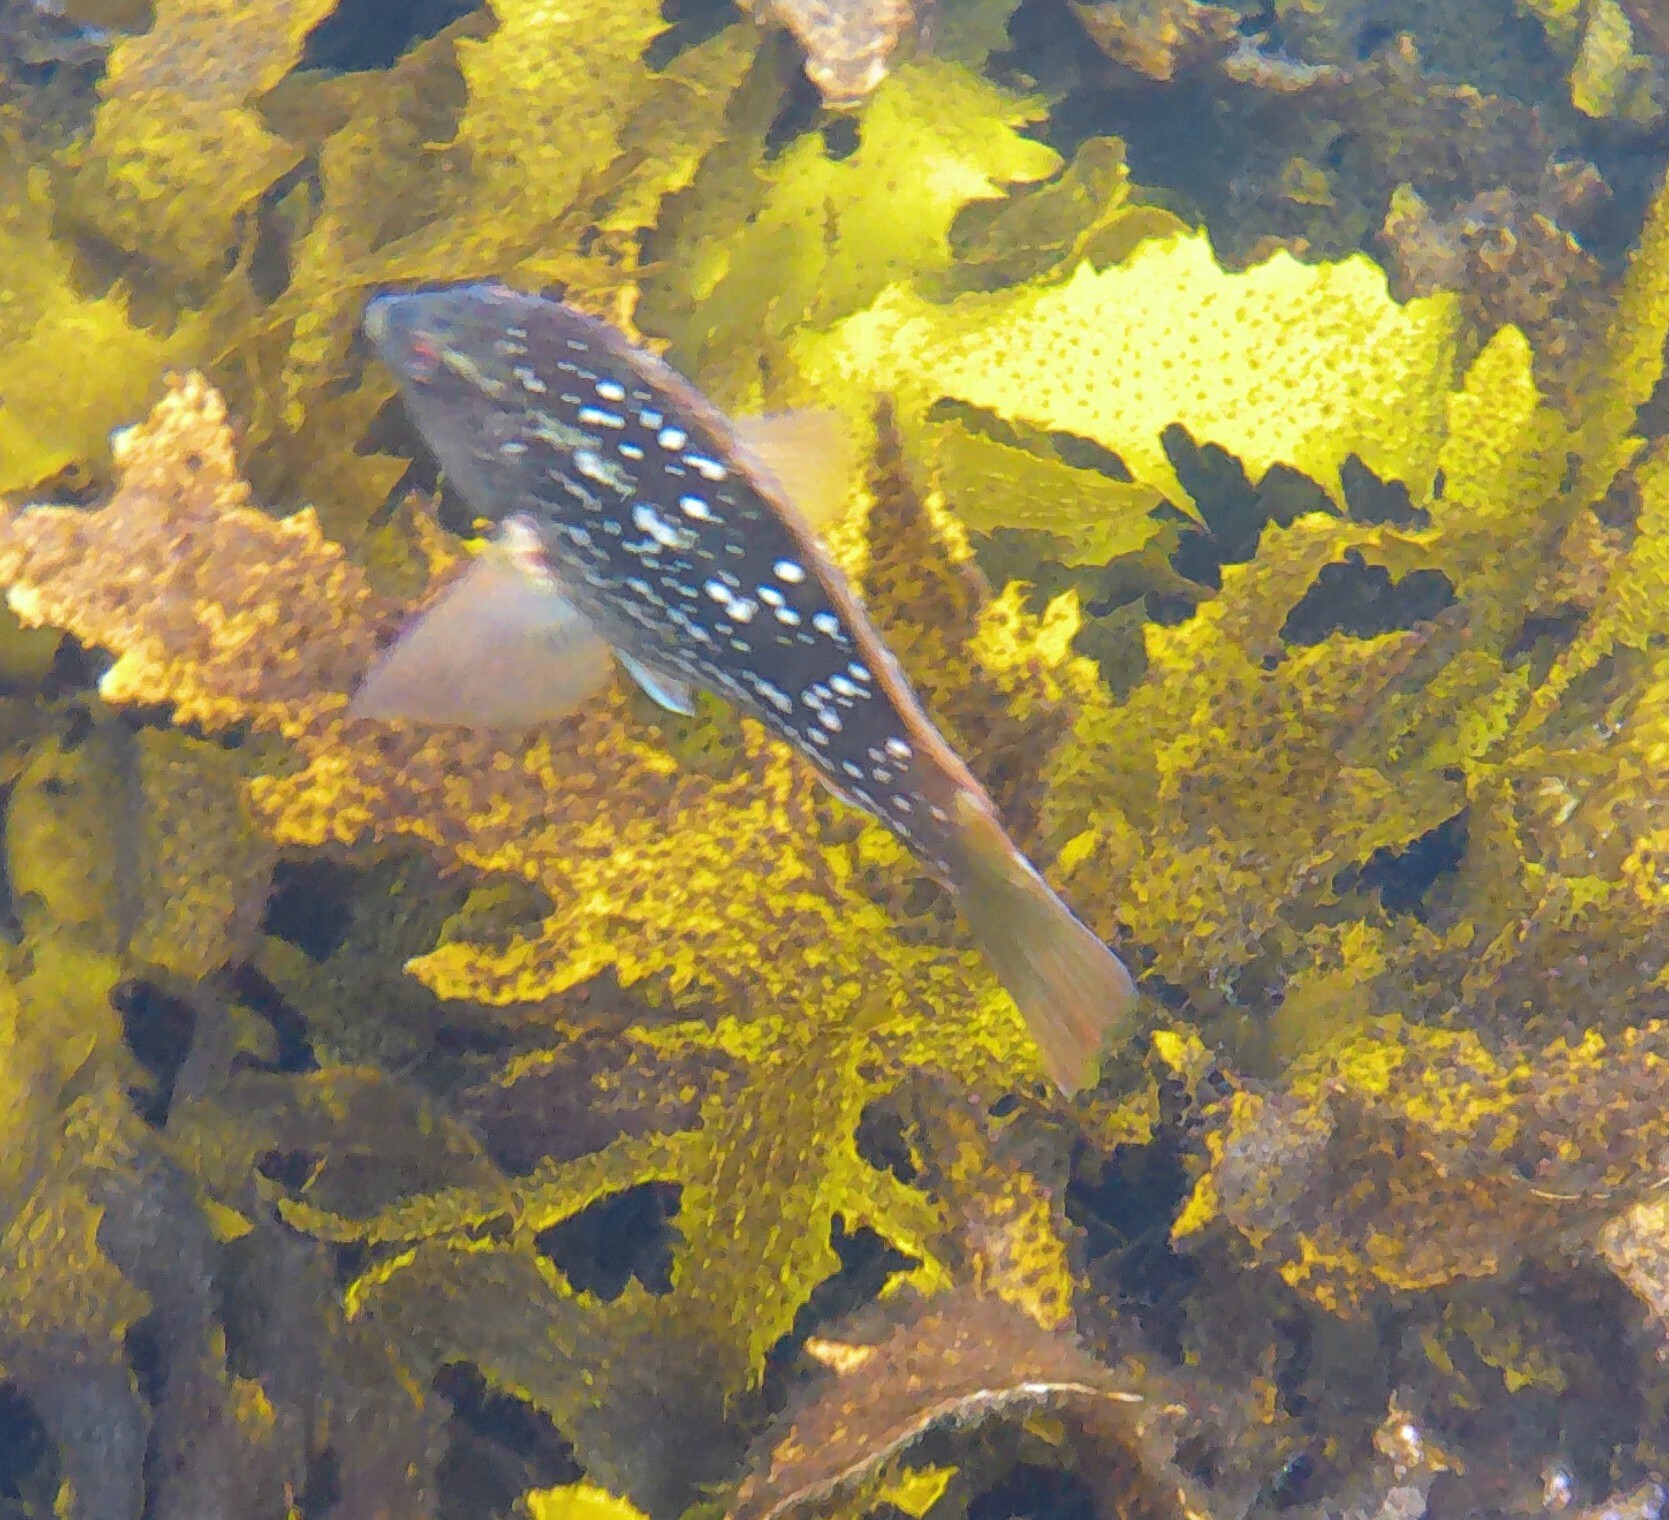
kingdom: Animalia
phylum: Chordata
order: Perciformes
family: Labridae
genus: Notolabrus
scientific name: Notolabrus gymnogenis
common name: Crimson banded wrasse
